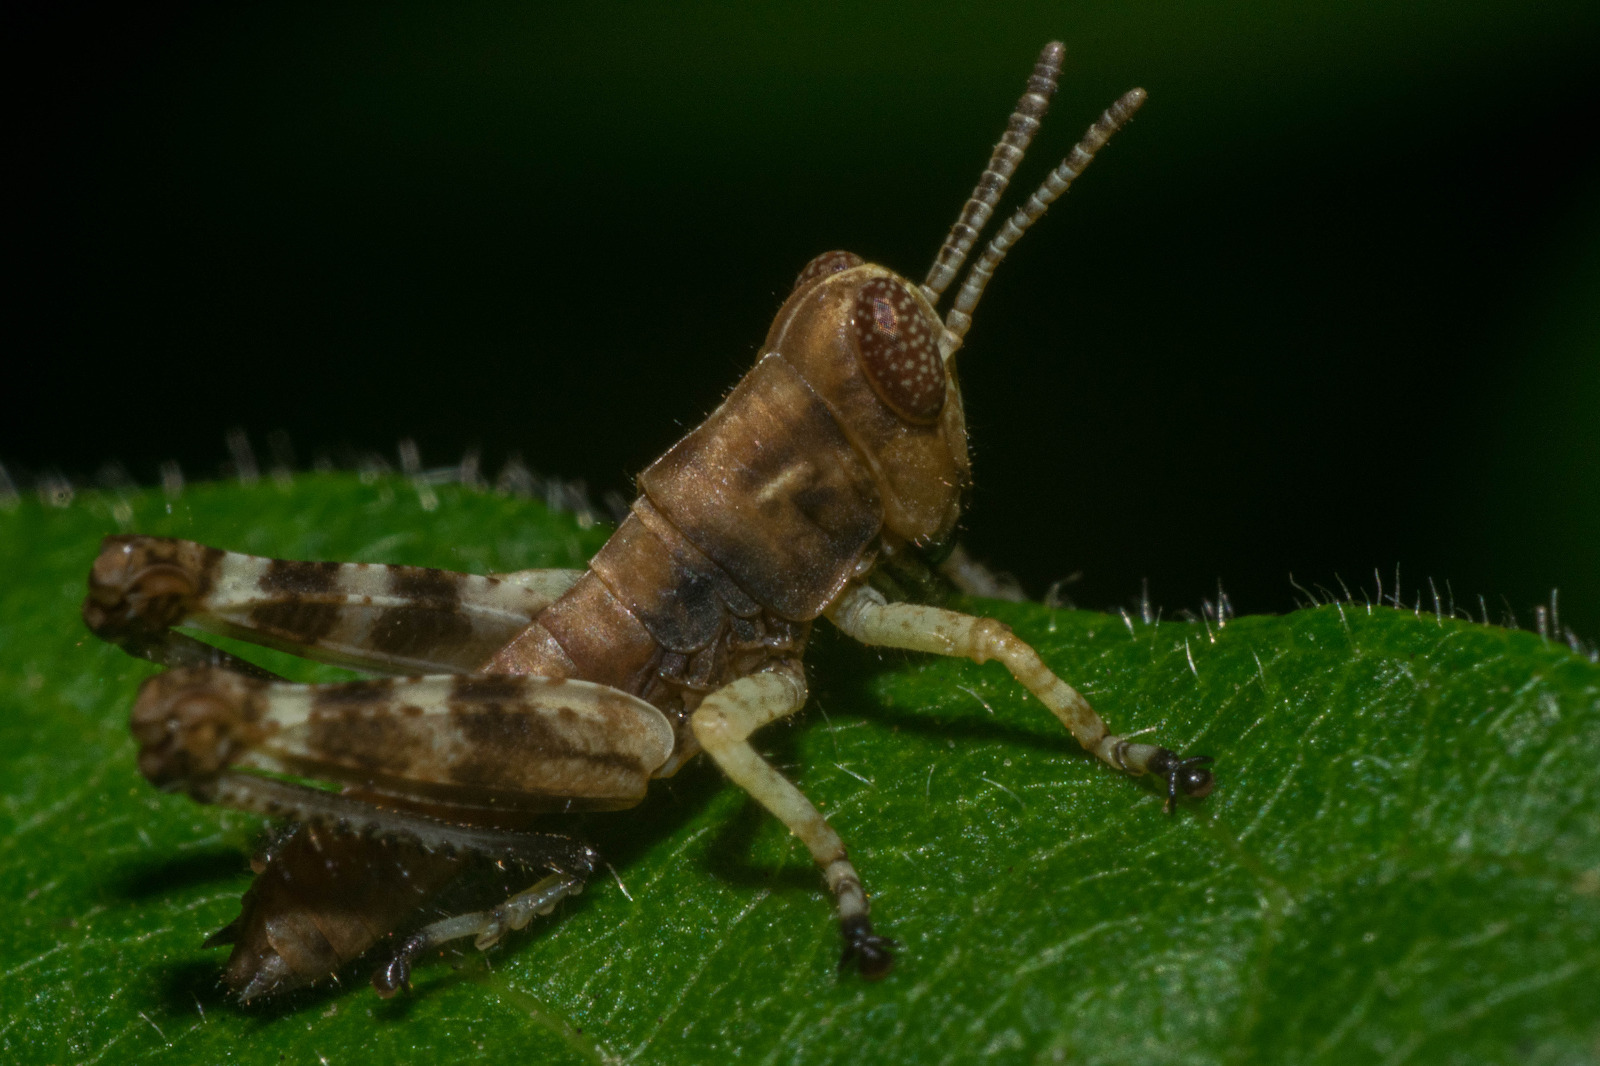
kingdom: Animalia
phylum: Arthropoda
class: Insecta
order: Orthoptera
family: Acrididae
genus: Melanoplus
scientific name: Melanoplus punctulatus
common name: Pine-tree spur-throat grasshopper
